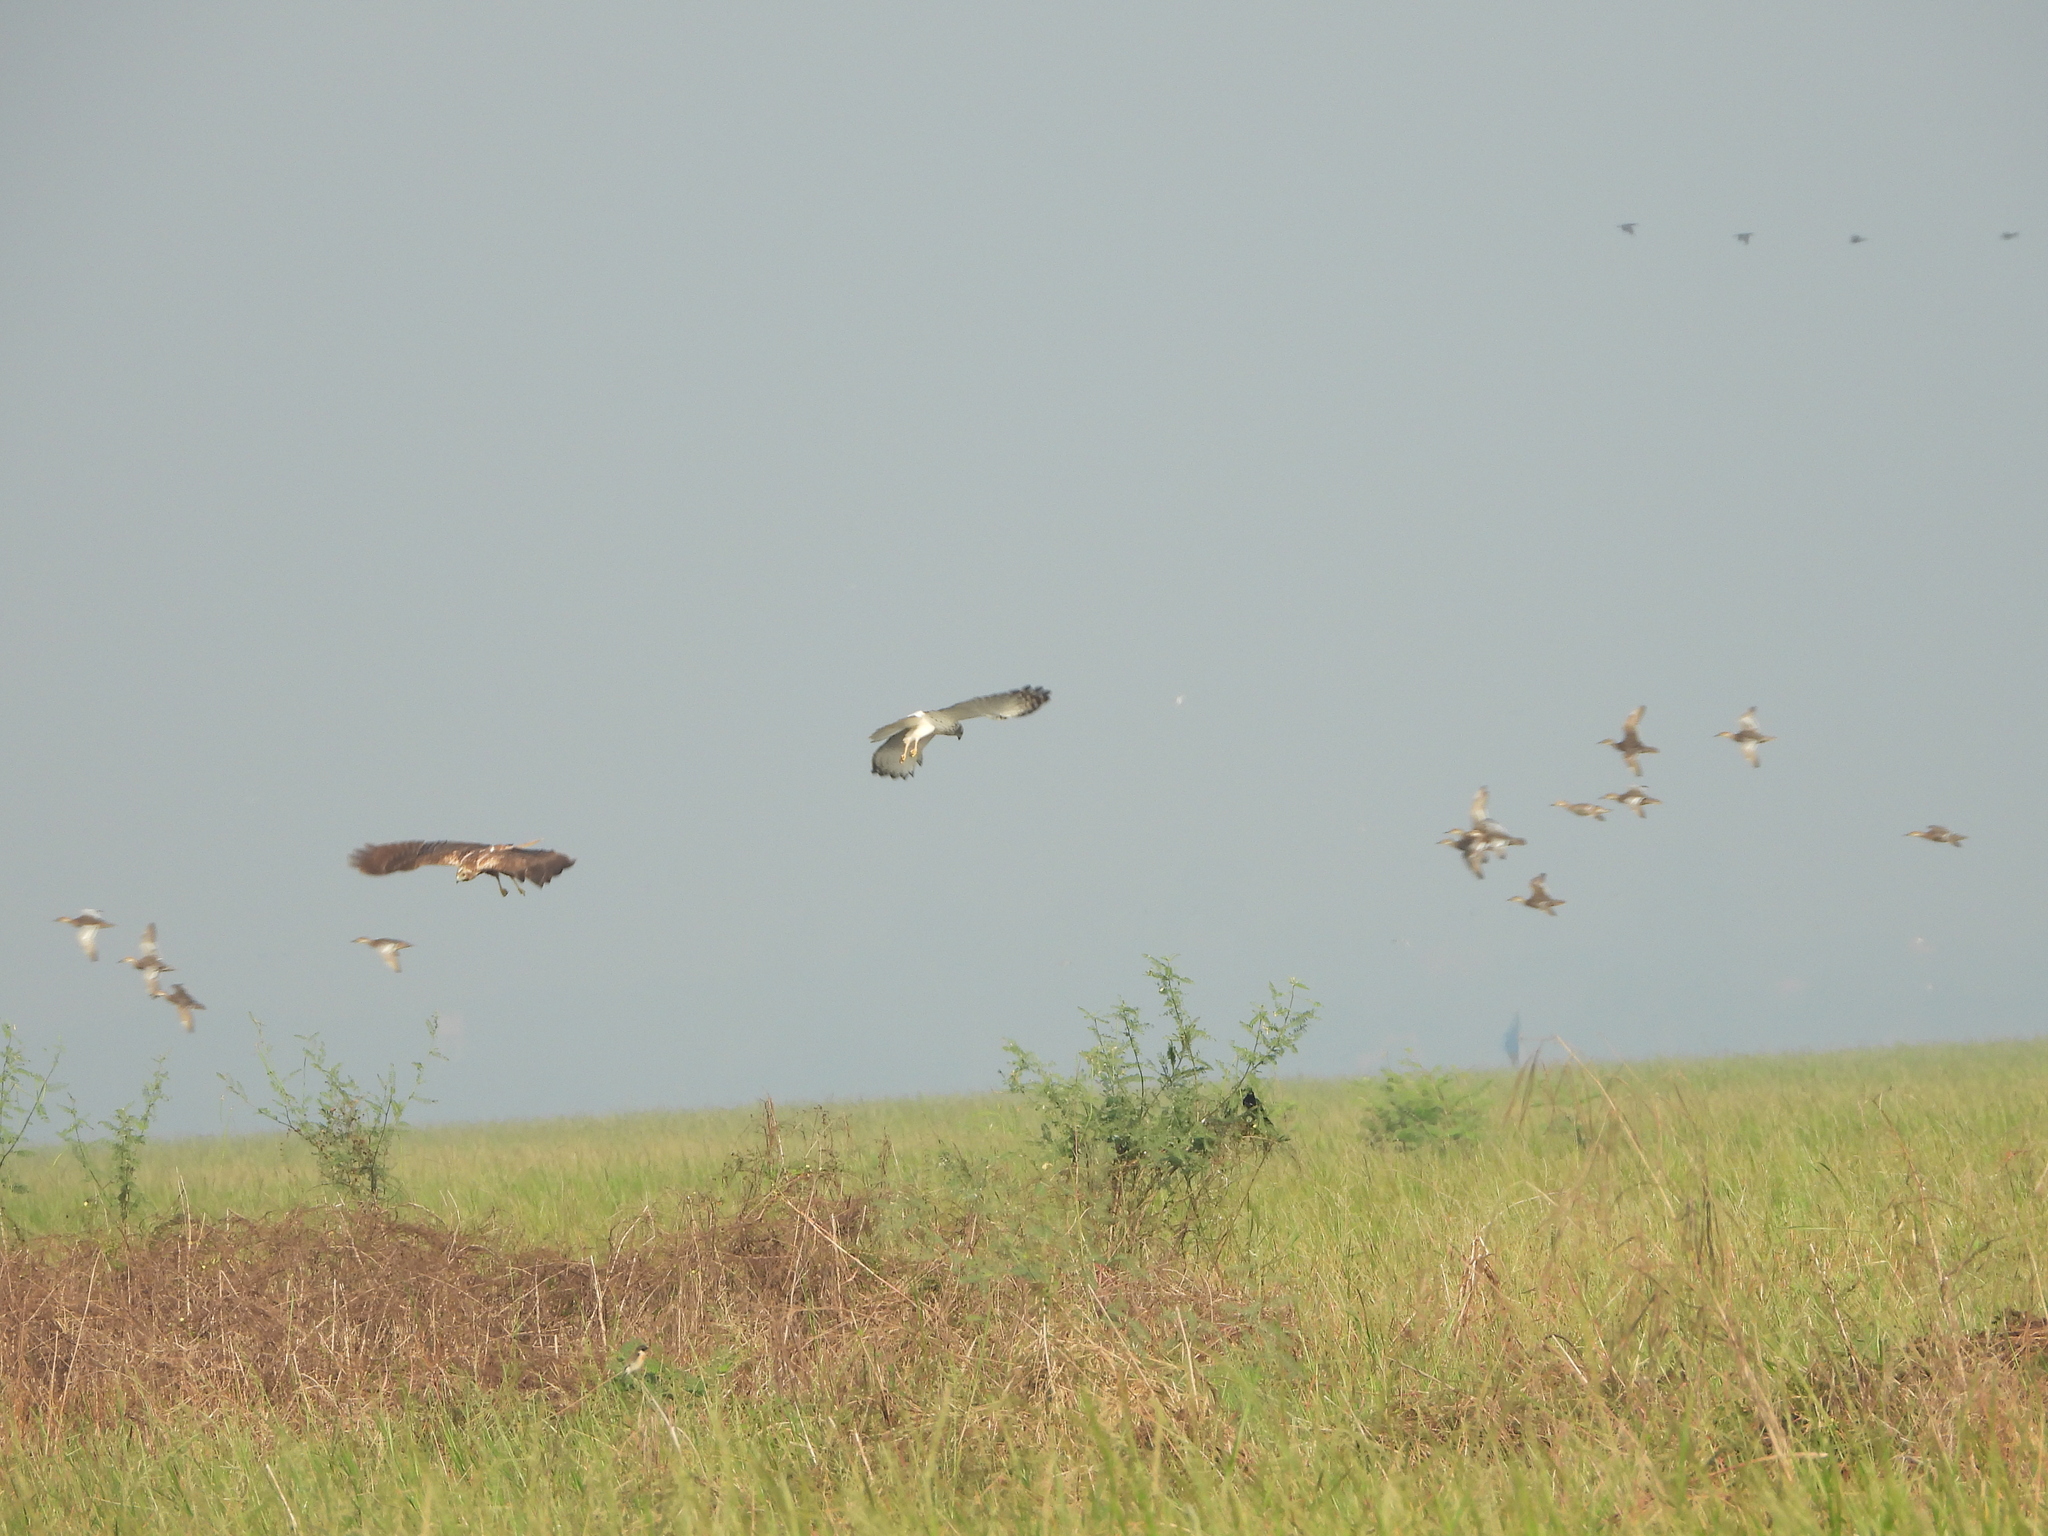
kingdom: Animalia
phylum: Chordata
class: Aves
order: Accipitriformes
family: Accipitridae
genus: Circus
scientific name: Circus spilonotus
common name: Eastern marsh-harrier
